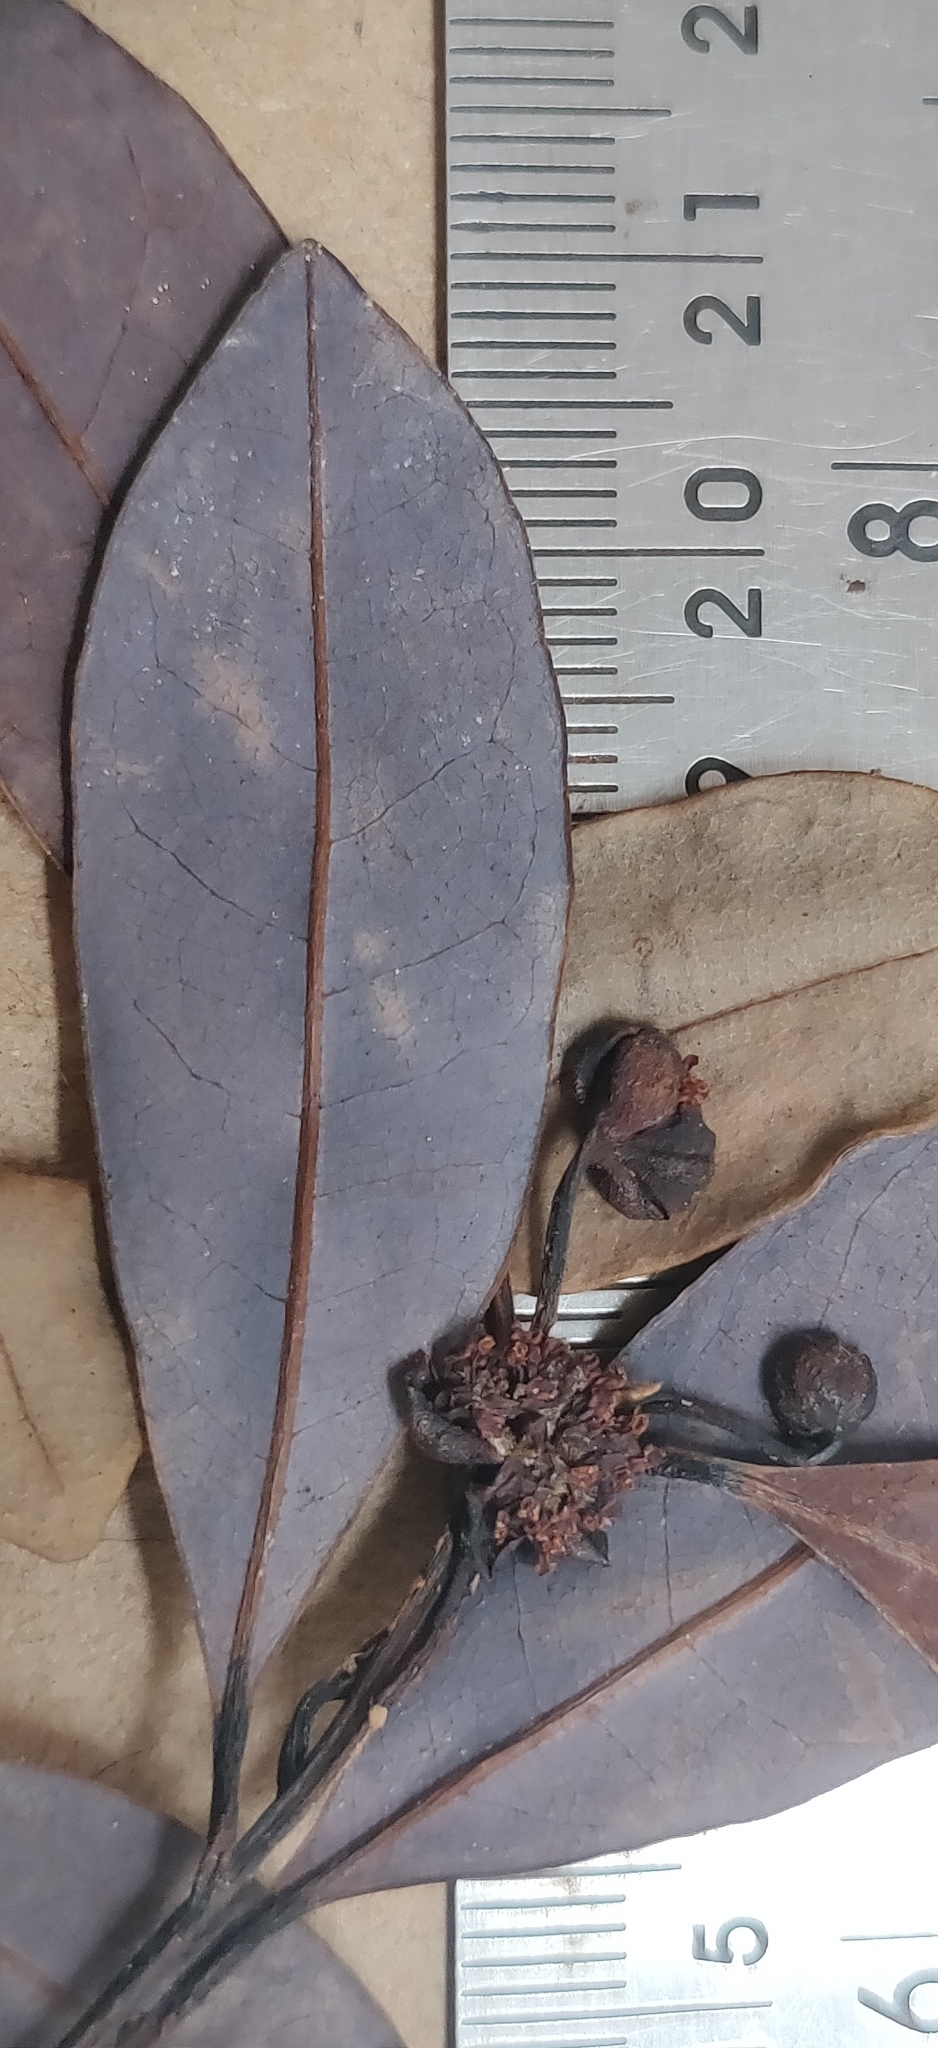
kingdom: Plantae
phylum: Tracheophyta
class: Magnoliopsida
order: Laurales
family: Lauraceae
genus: Litsea
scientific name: Litsea kakkachensis
